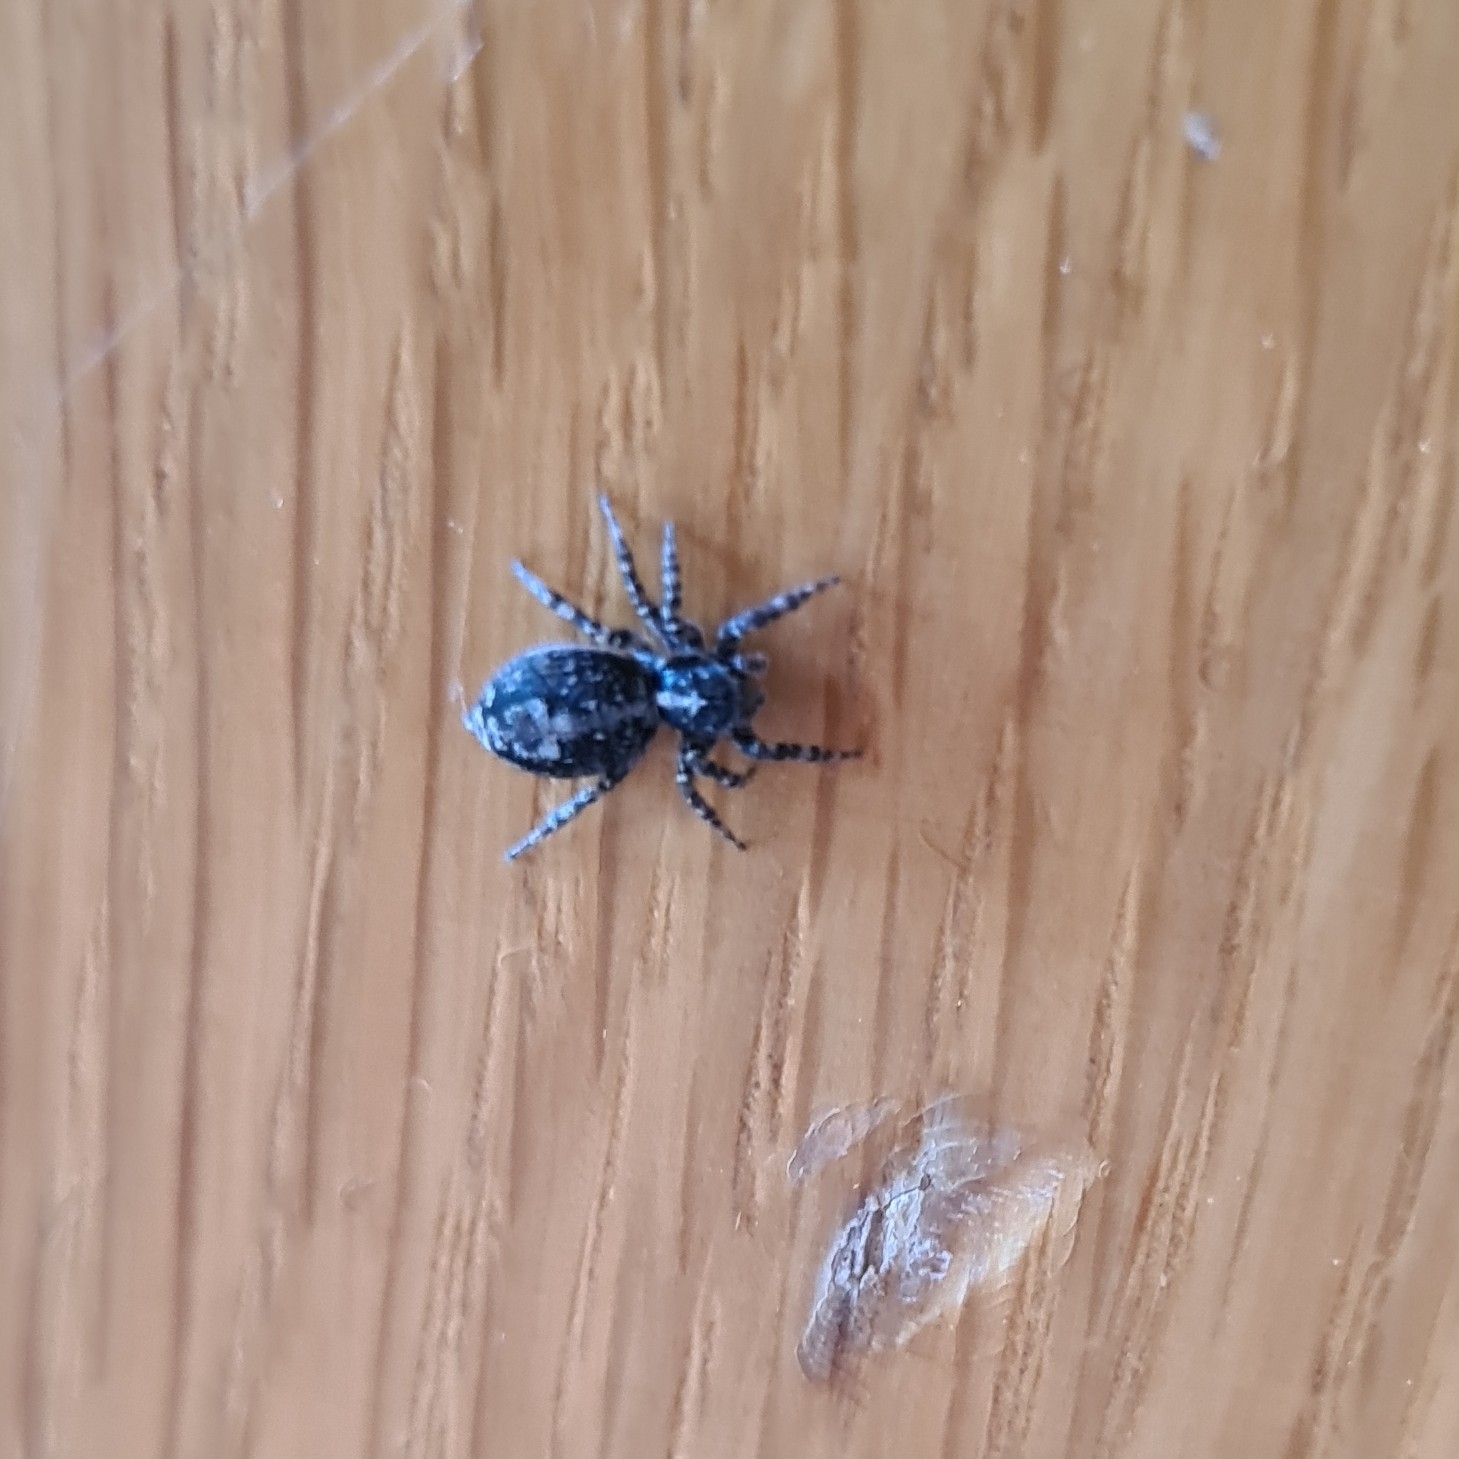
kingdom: Animalia
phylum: Arthropoda
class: Arachnida
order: Araneae
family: Salticidae
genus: Attulus
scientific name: Attulus terebratus
